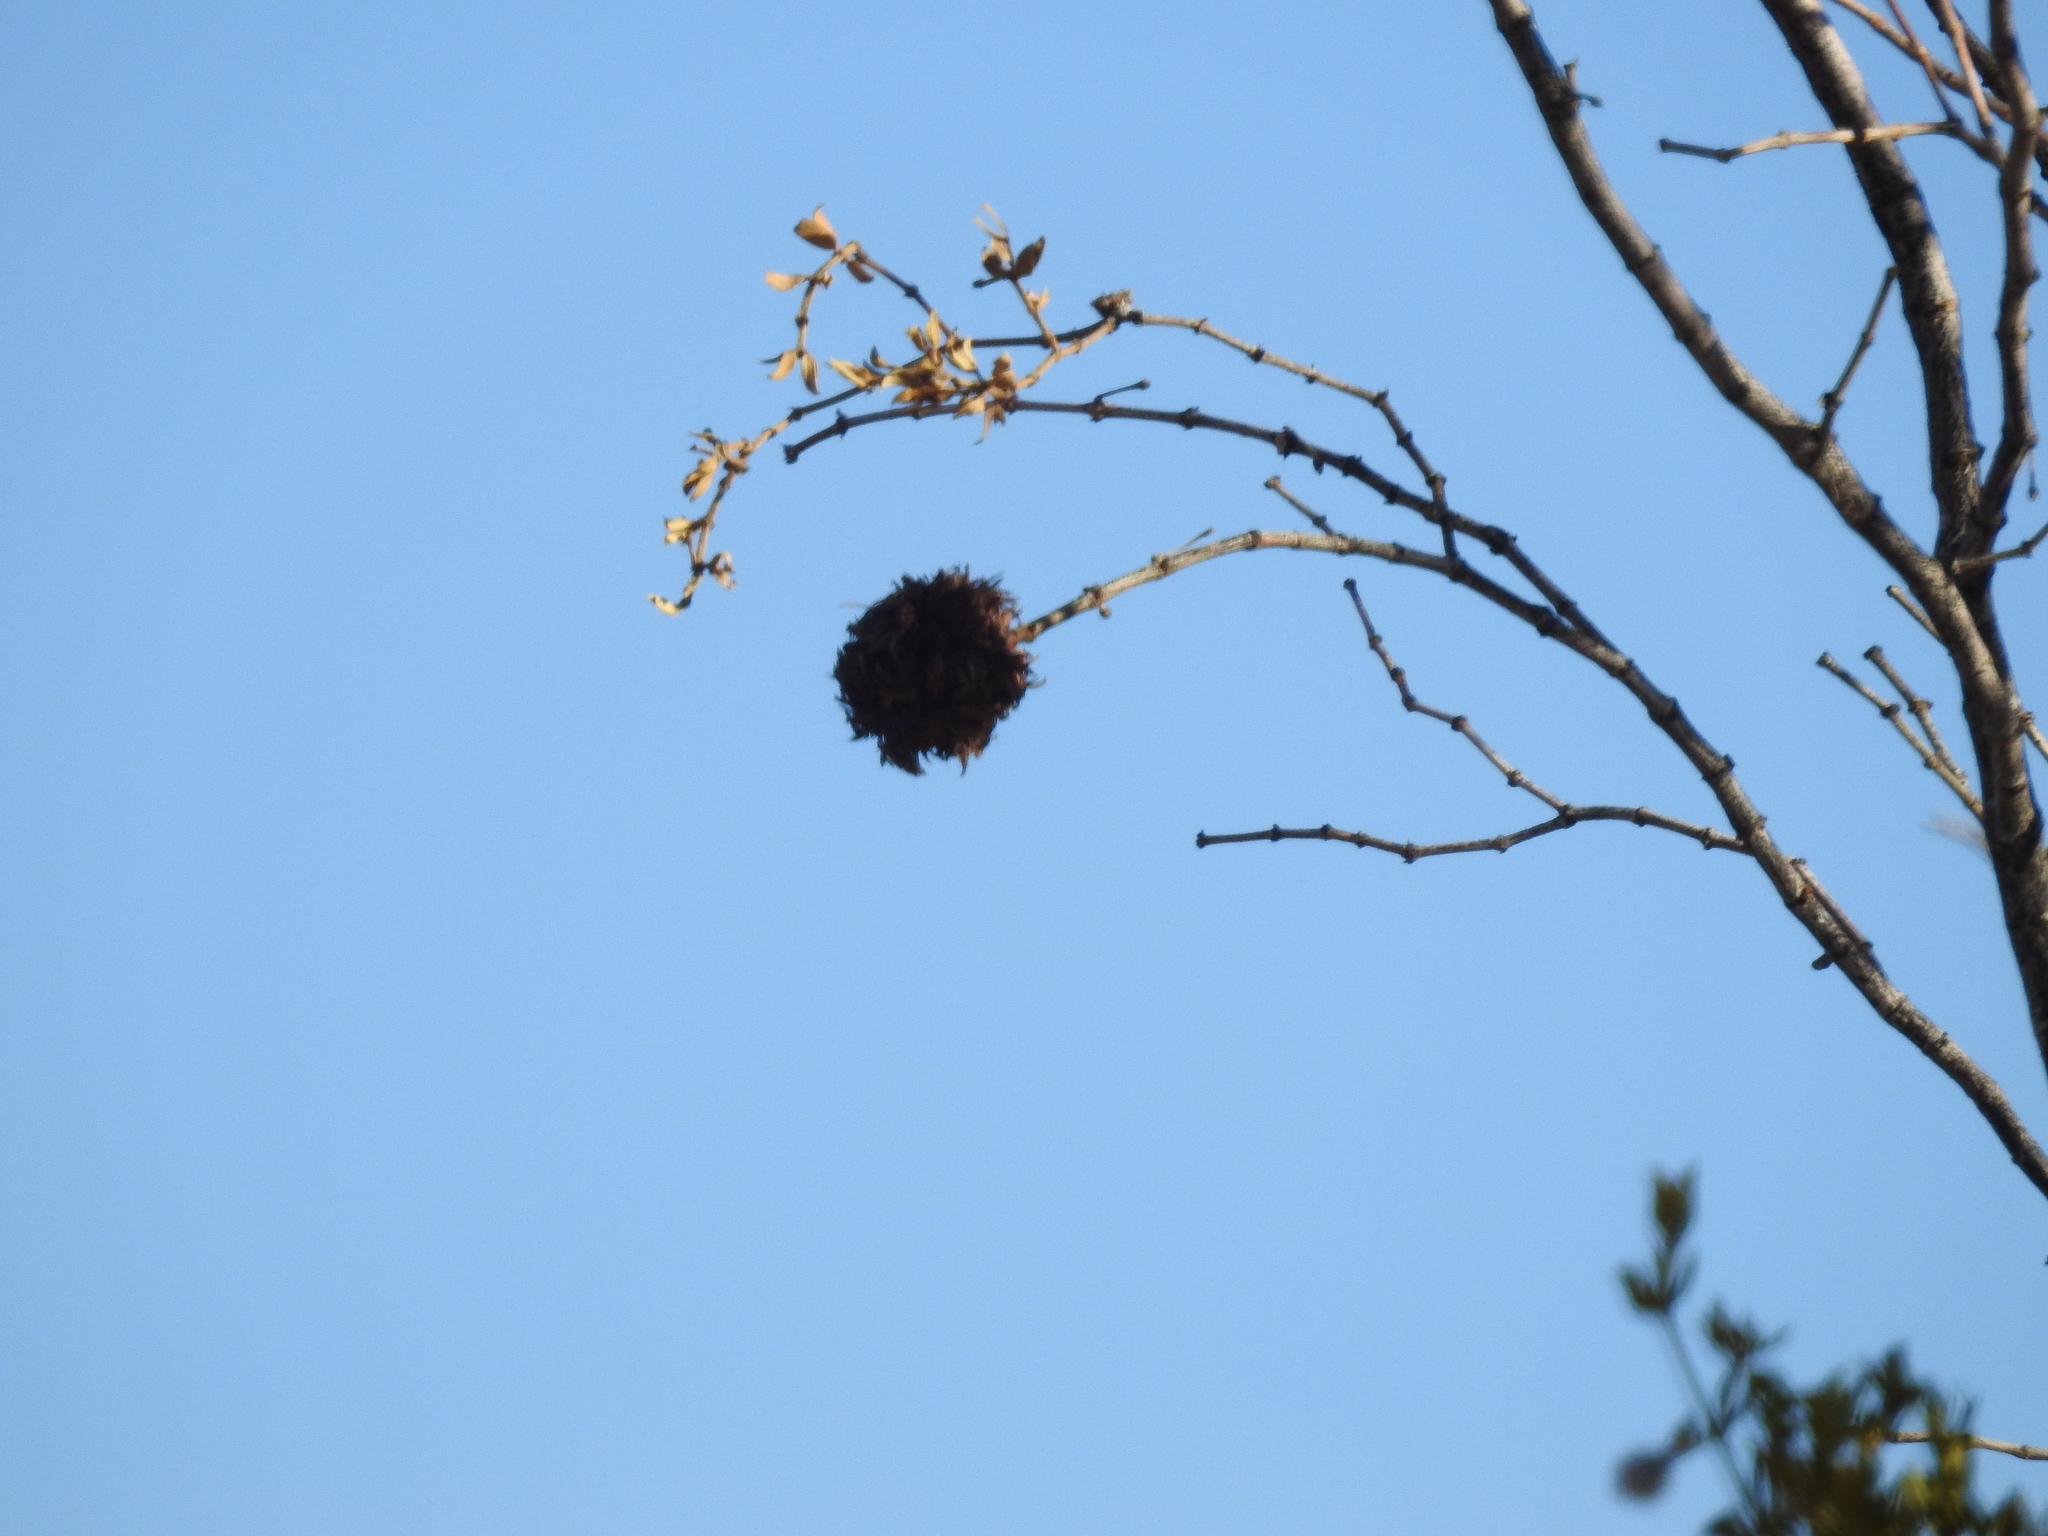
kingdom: Animalia
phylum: Arthropoda
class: Insecta
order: Diptera
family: Cecidomyiidae
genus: Asphondylia
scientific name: Asphondylia auripila
